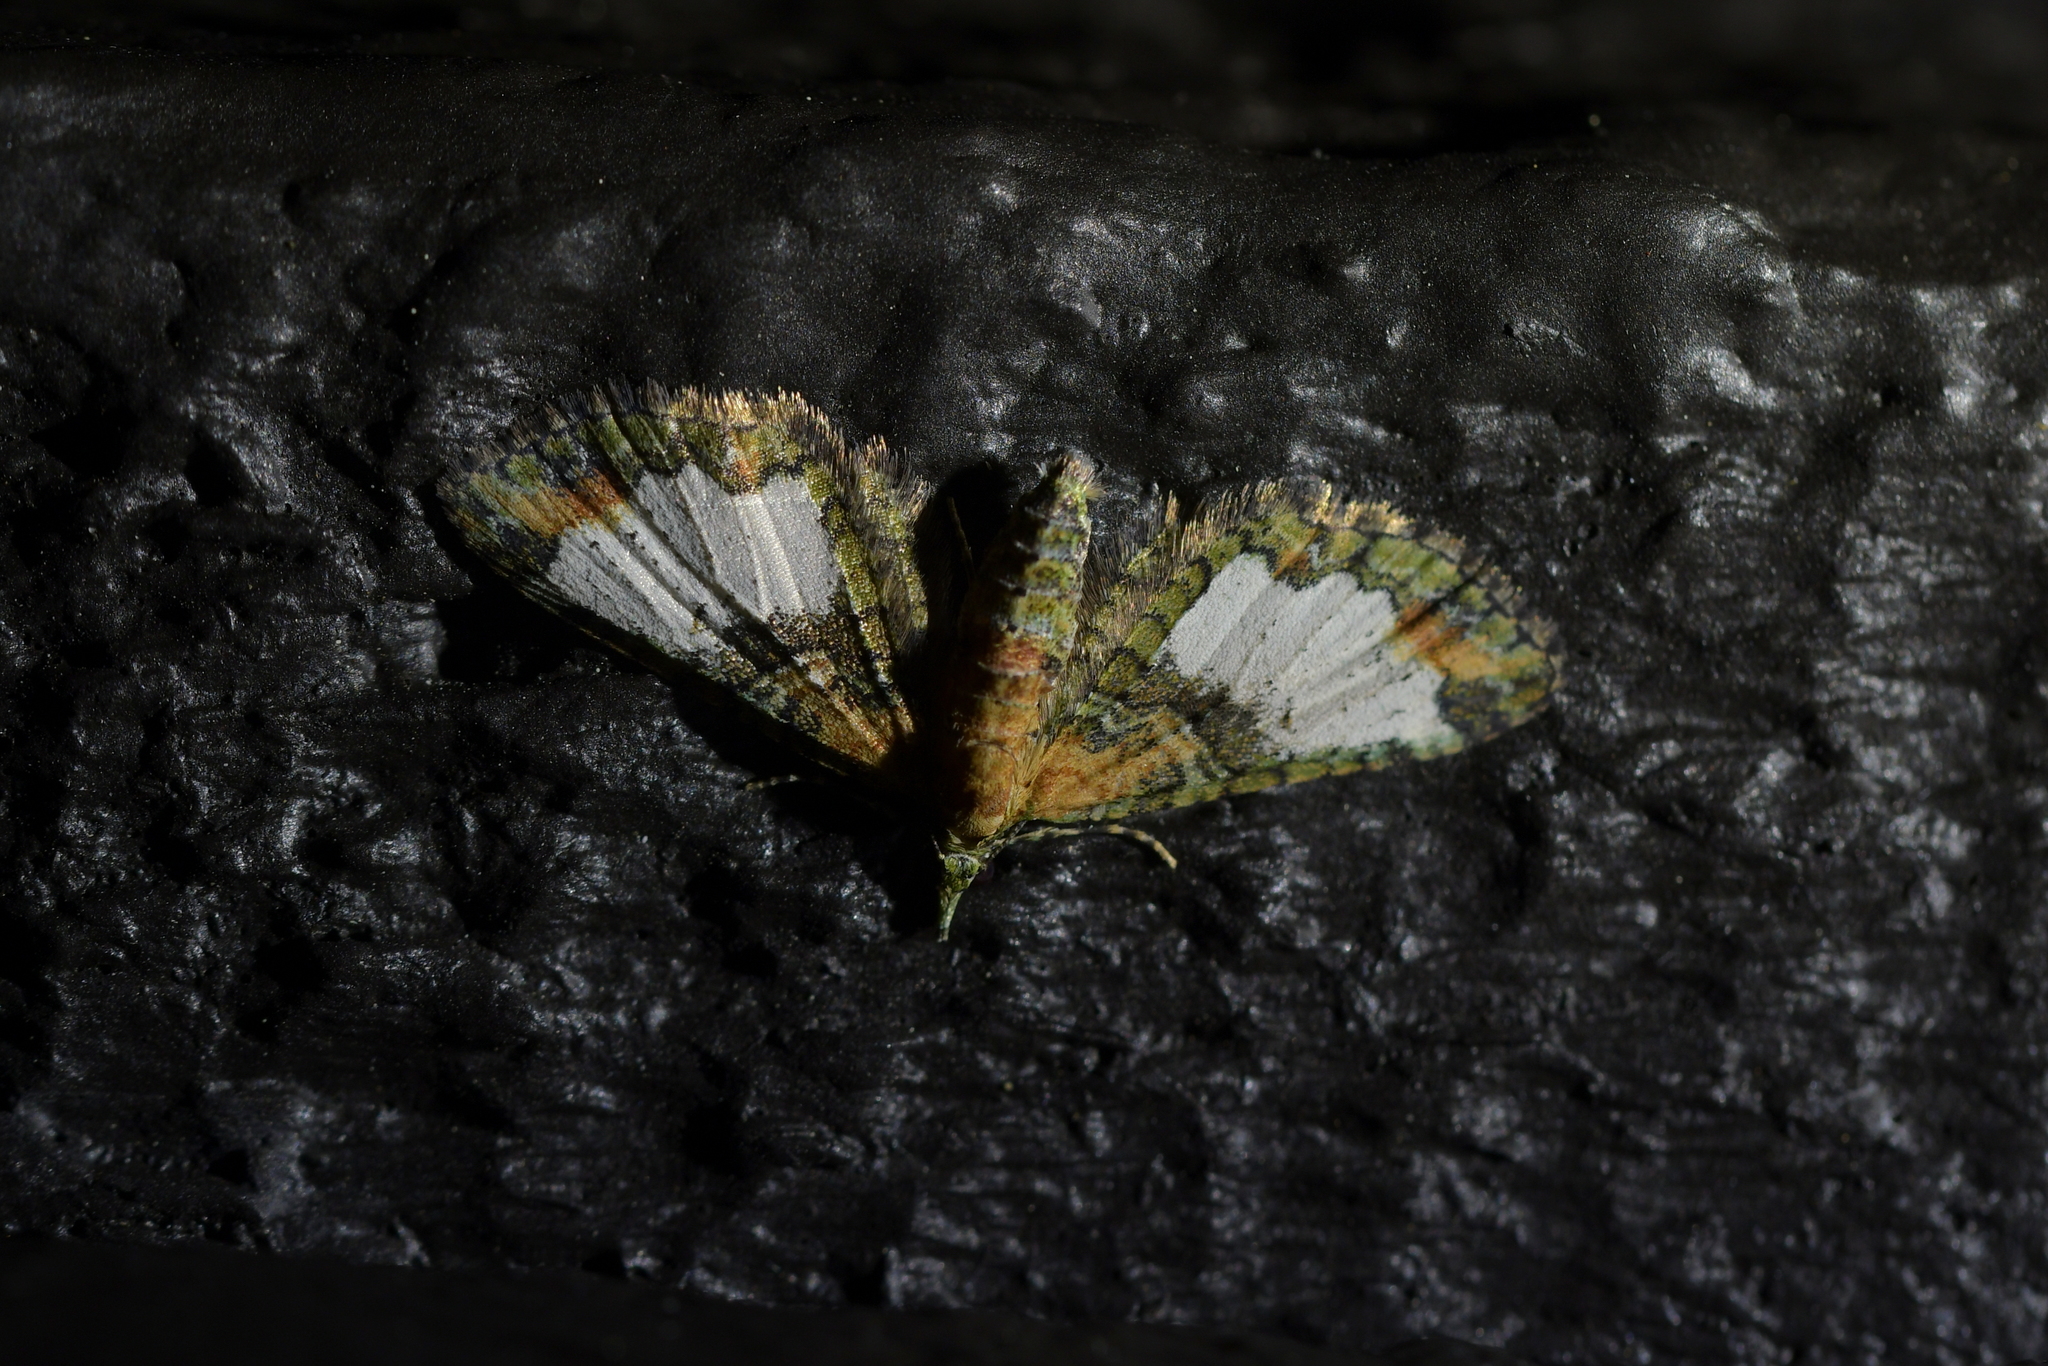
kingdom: Animalia
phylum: Arthropoda
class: Insecta
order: Lepidoptera
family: Geometridae
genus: Idaea
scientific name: Idaea mutanda
